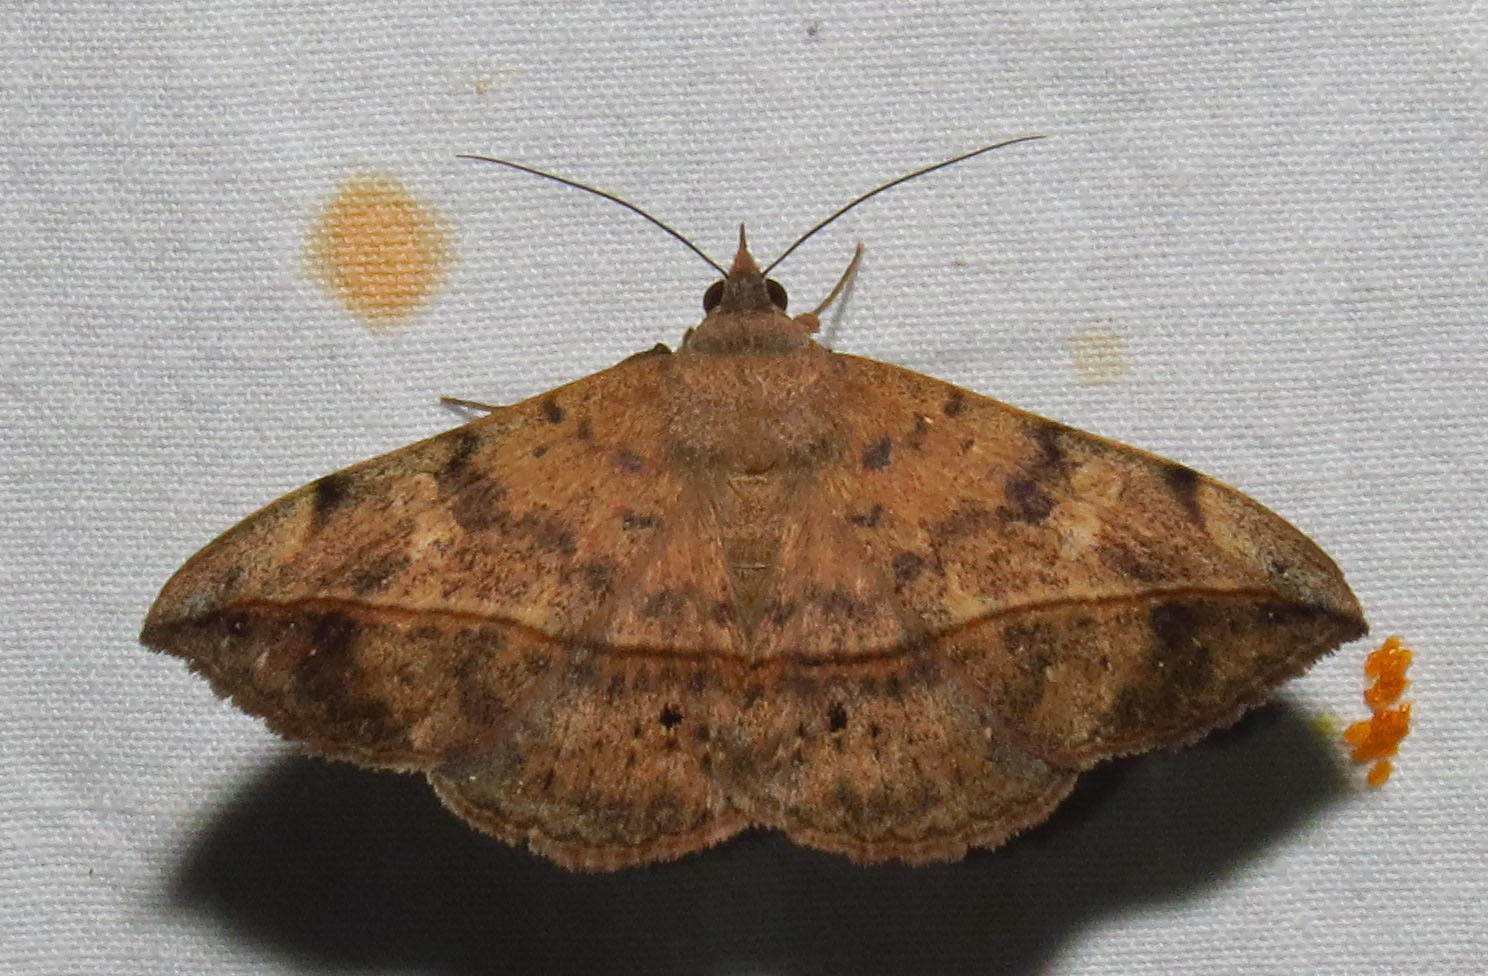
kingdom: Animalia
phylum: Arthropoda
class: Insecta
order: Lepidoptera
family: Erebidae
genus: Anticarsia
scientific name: Anticarsia gemmatalis
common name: Cutworm moth
